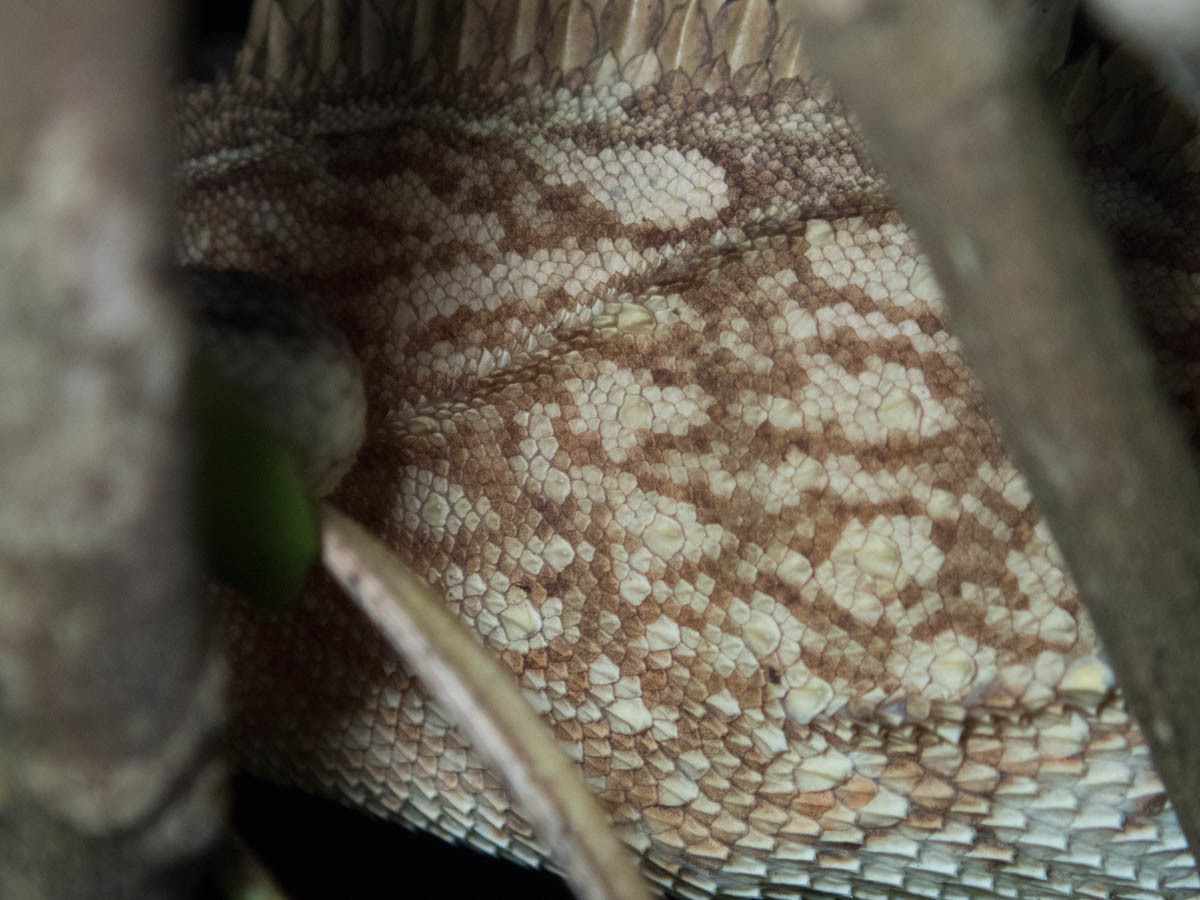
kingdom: Animalia
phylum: Chordata
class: Squamata
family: Agamidae
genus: Acanthosaura
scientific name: Acanthosaura cardamomensis
